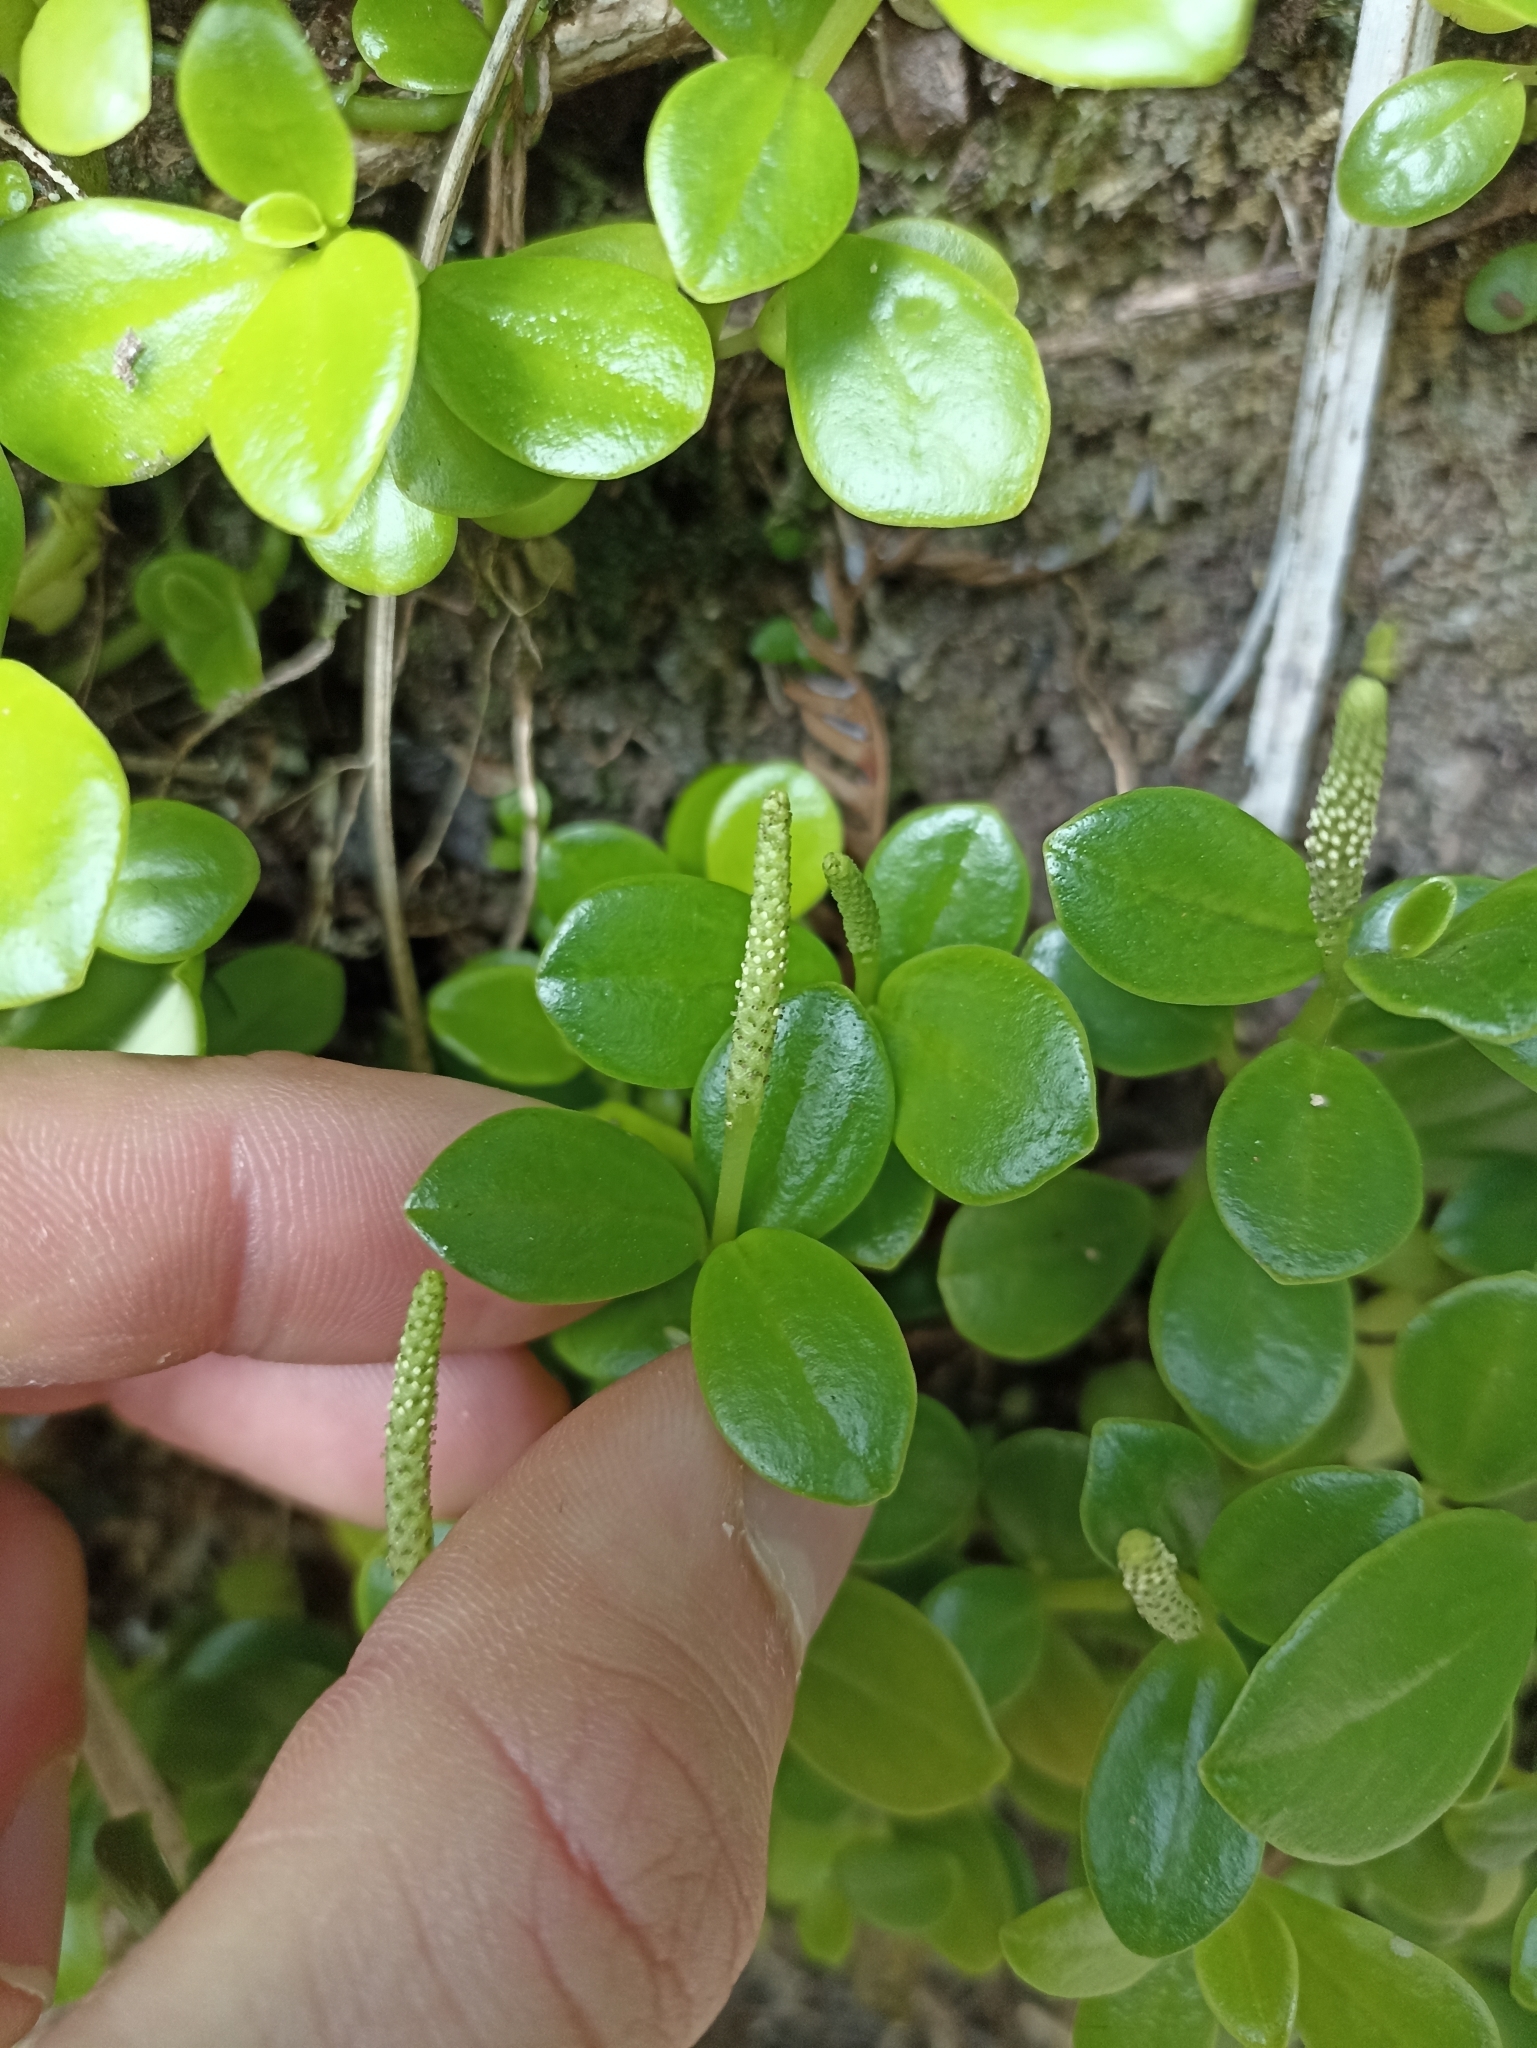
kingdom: Plantae
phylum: Tracheophyta
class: Magnoliopsida
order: Piperales
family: Piperaceae
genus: Peperomia
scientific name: Peperomia urvilleana
